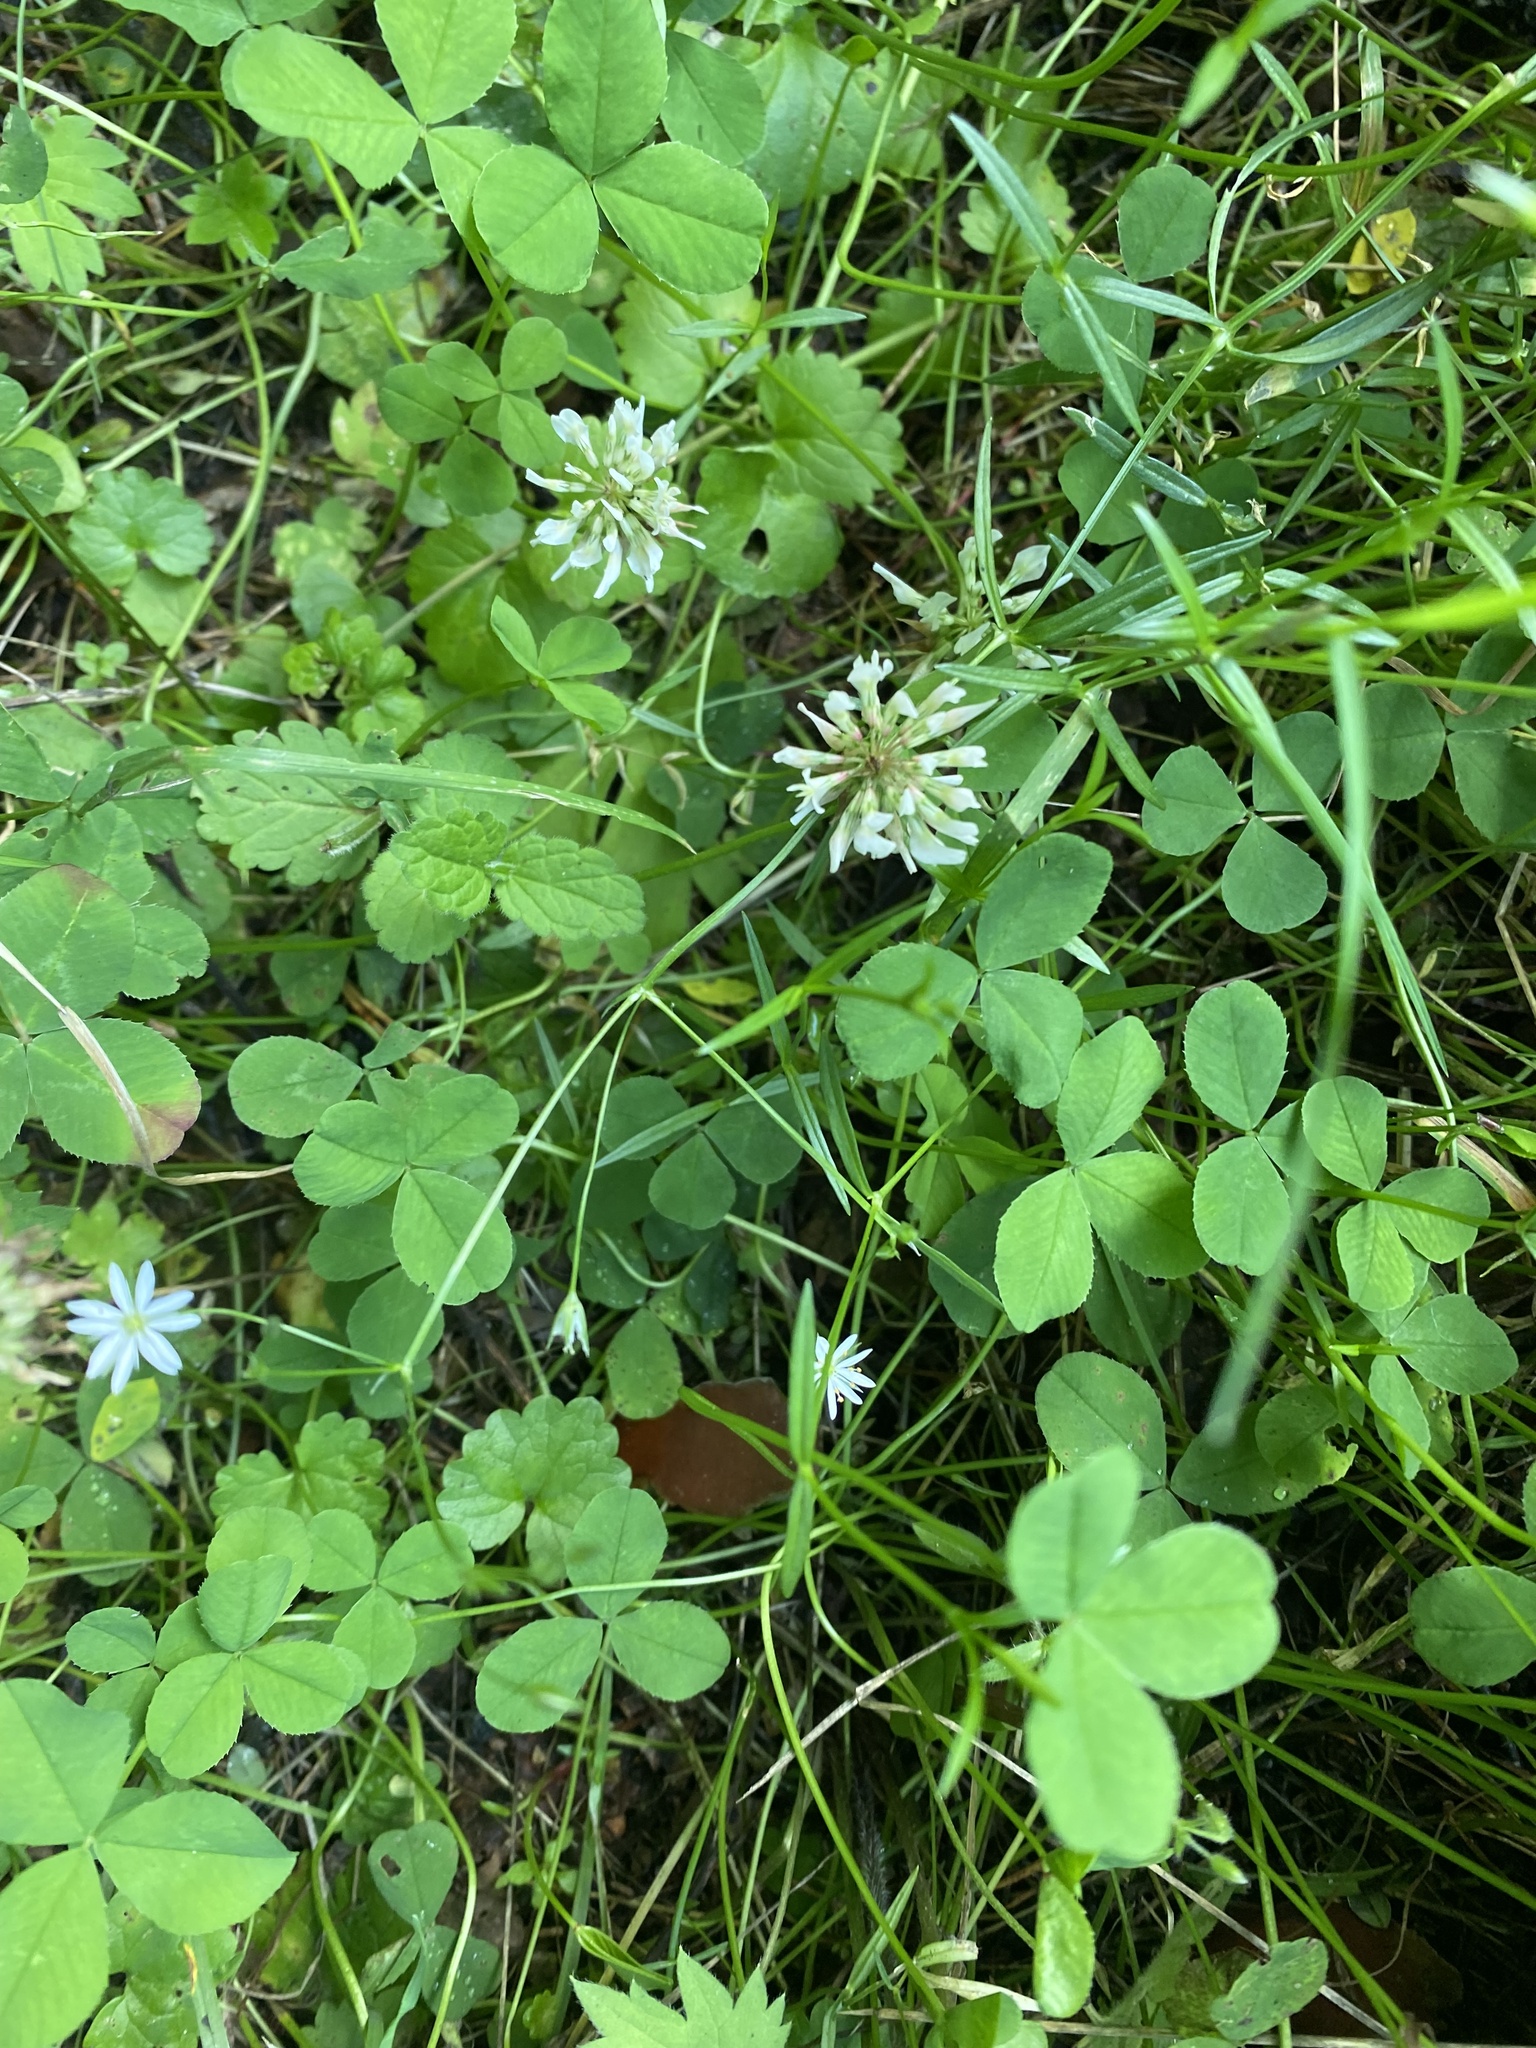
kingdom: Plantae
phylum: Tracheophyta
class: Magnoliopsida
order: Fabales
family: Fabaceae
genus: Trifolium
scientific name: Trifolium repens
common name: White clover
